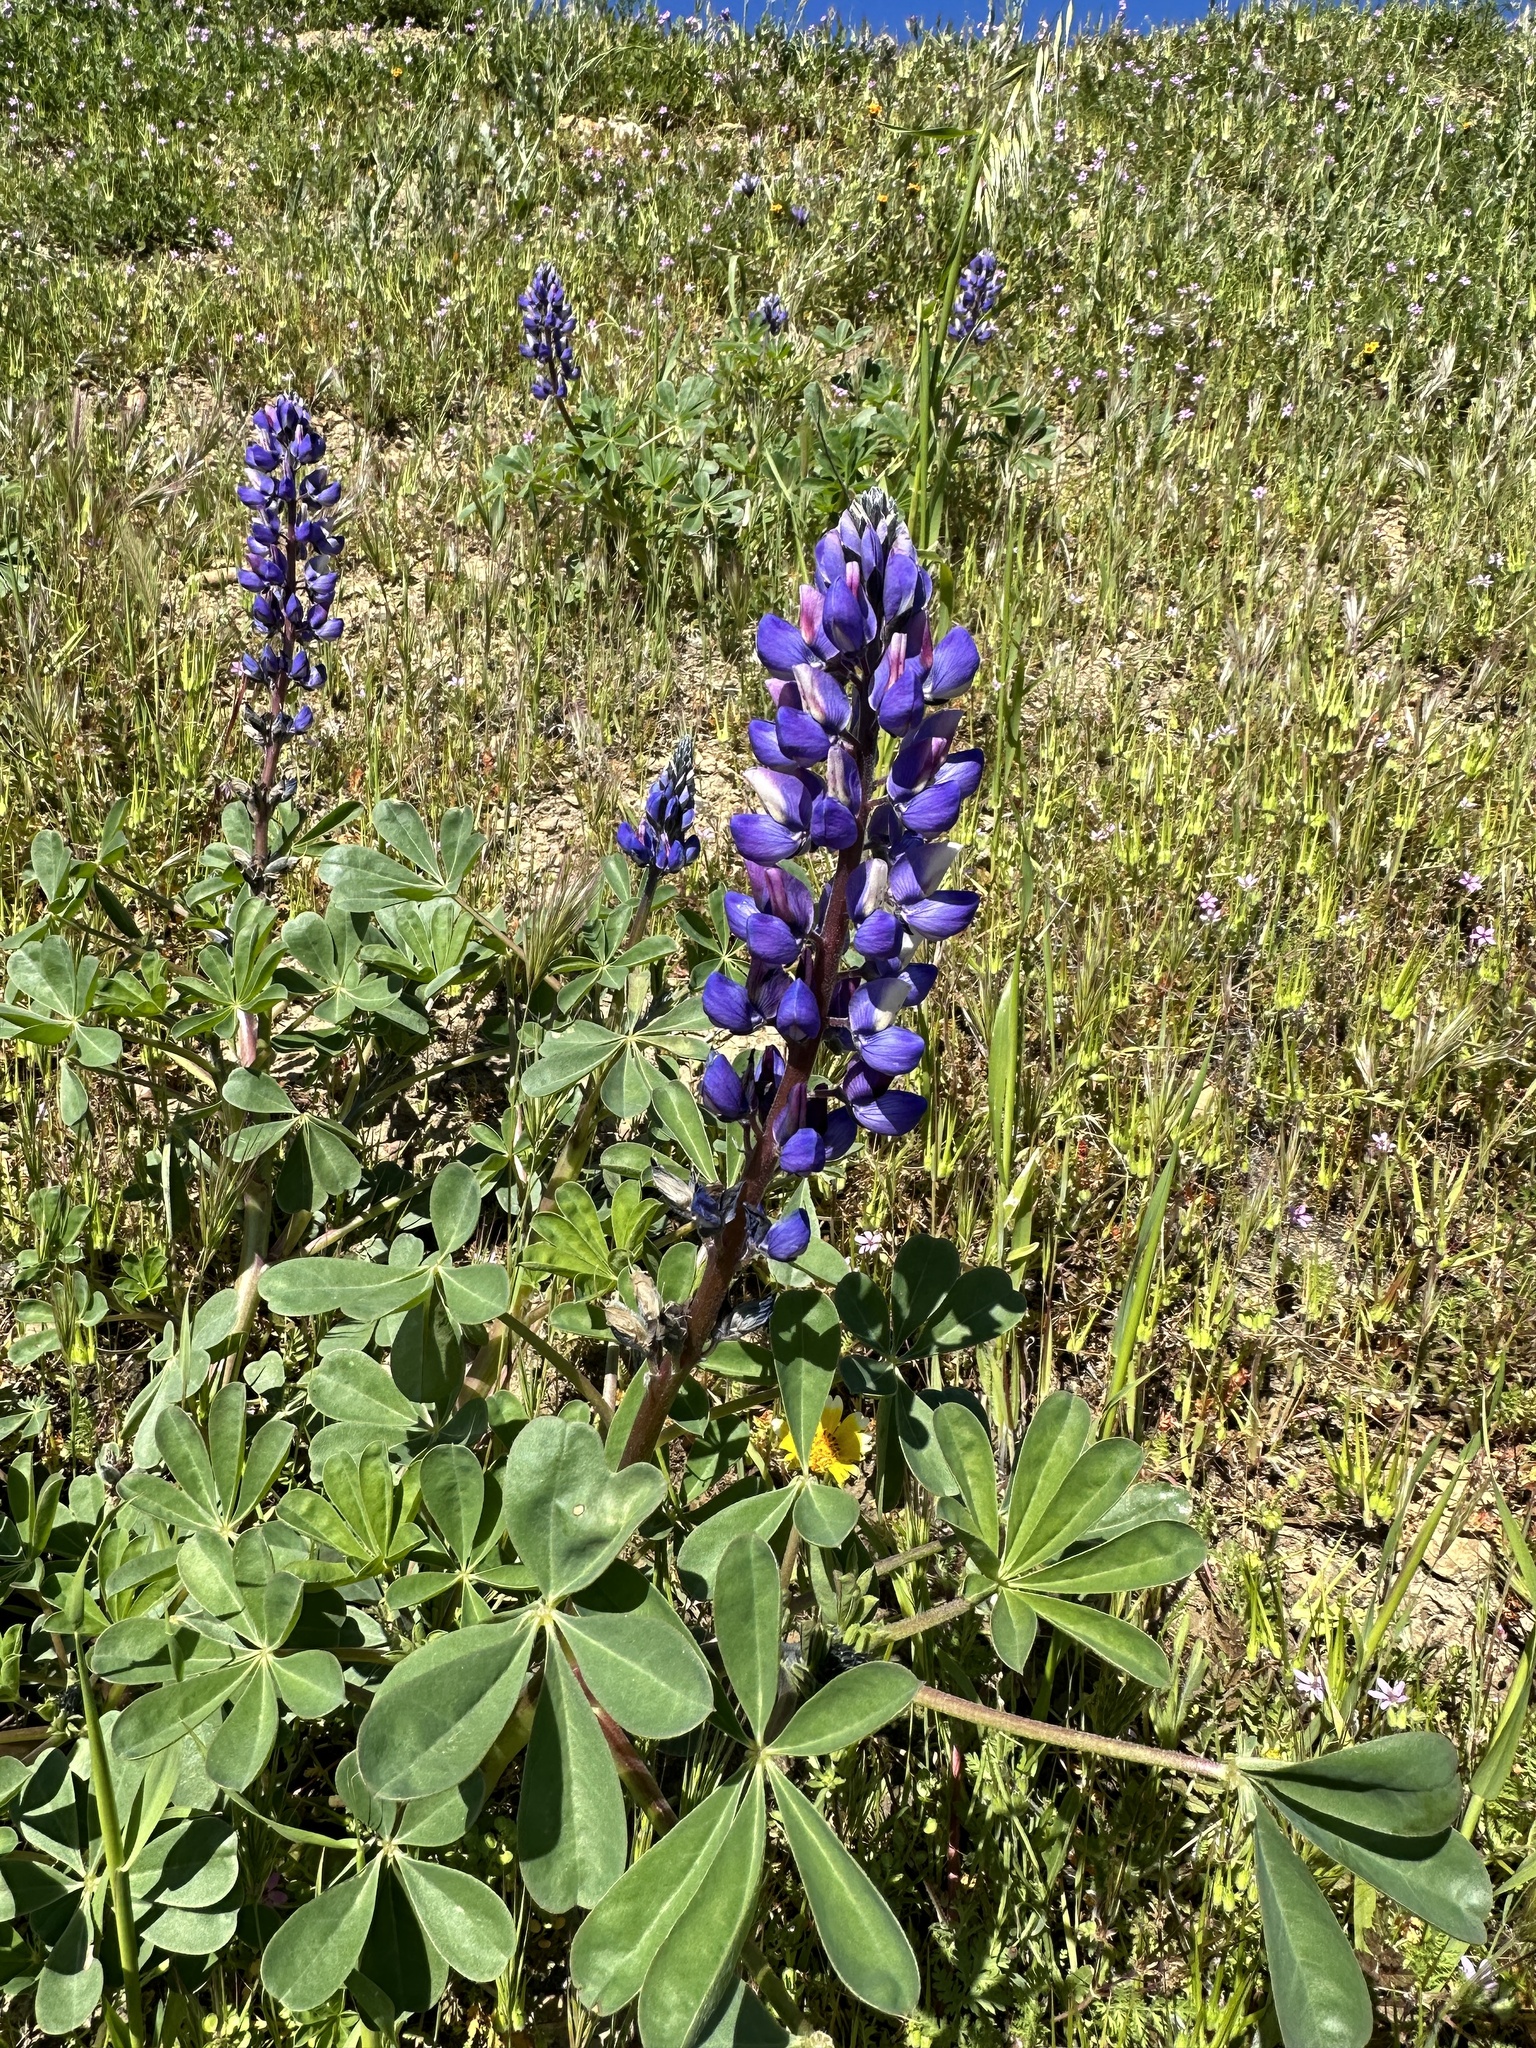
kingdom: Plantae
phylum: Tracheophyta
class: Magnoliopsida
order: Fabales
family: Fabaceae
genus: Lupinus
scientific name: Lupinus succulentus
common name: Arroyo lupine
